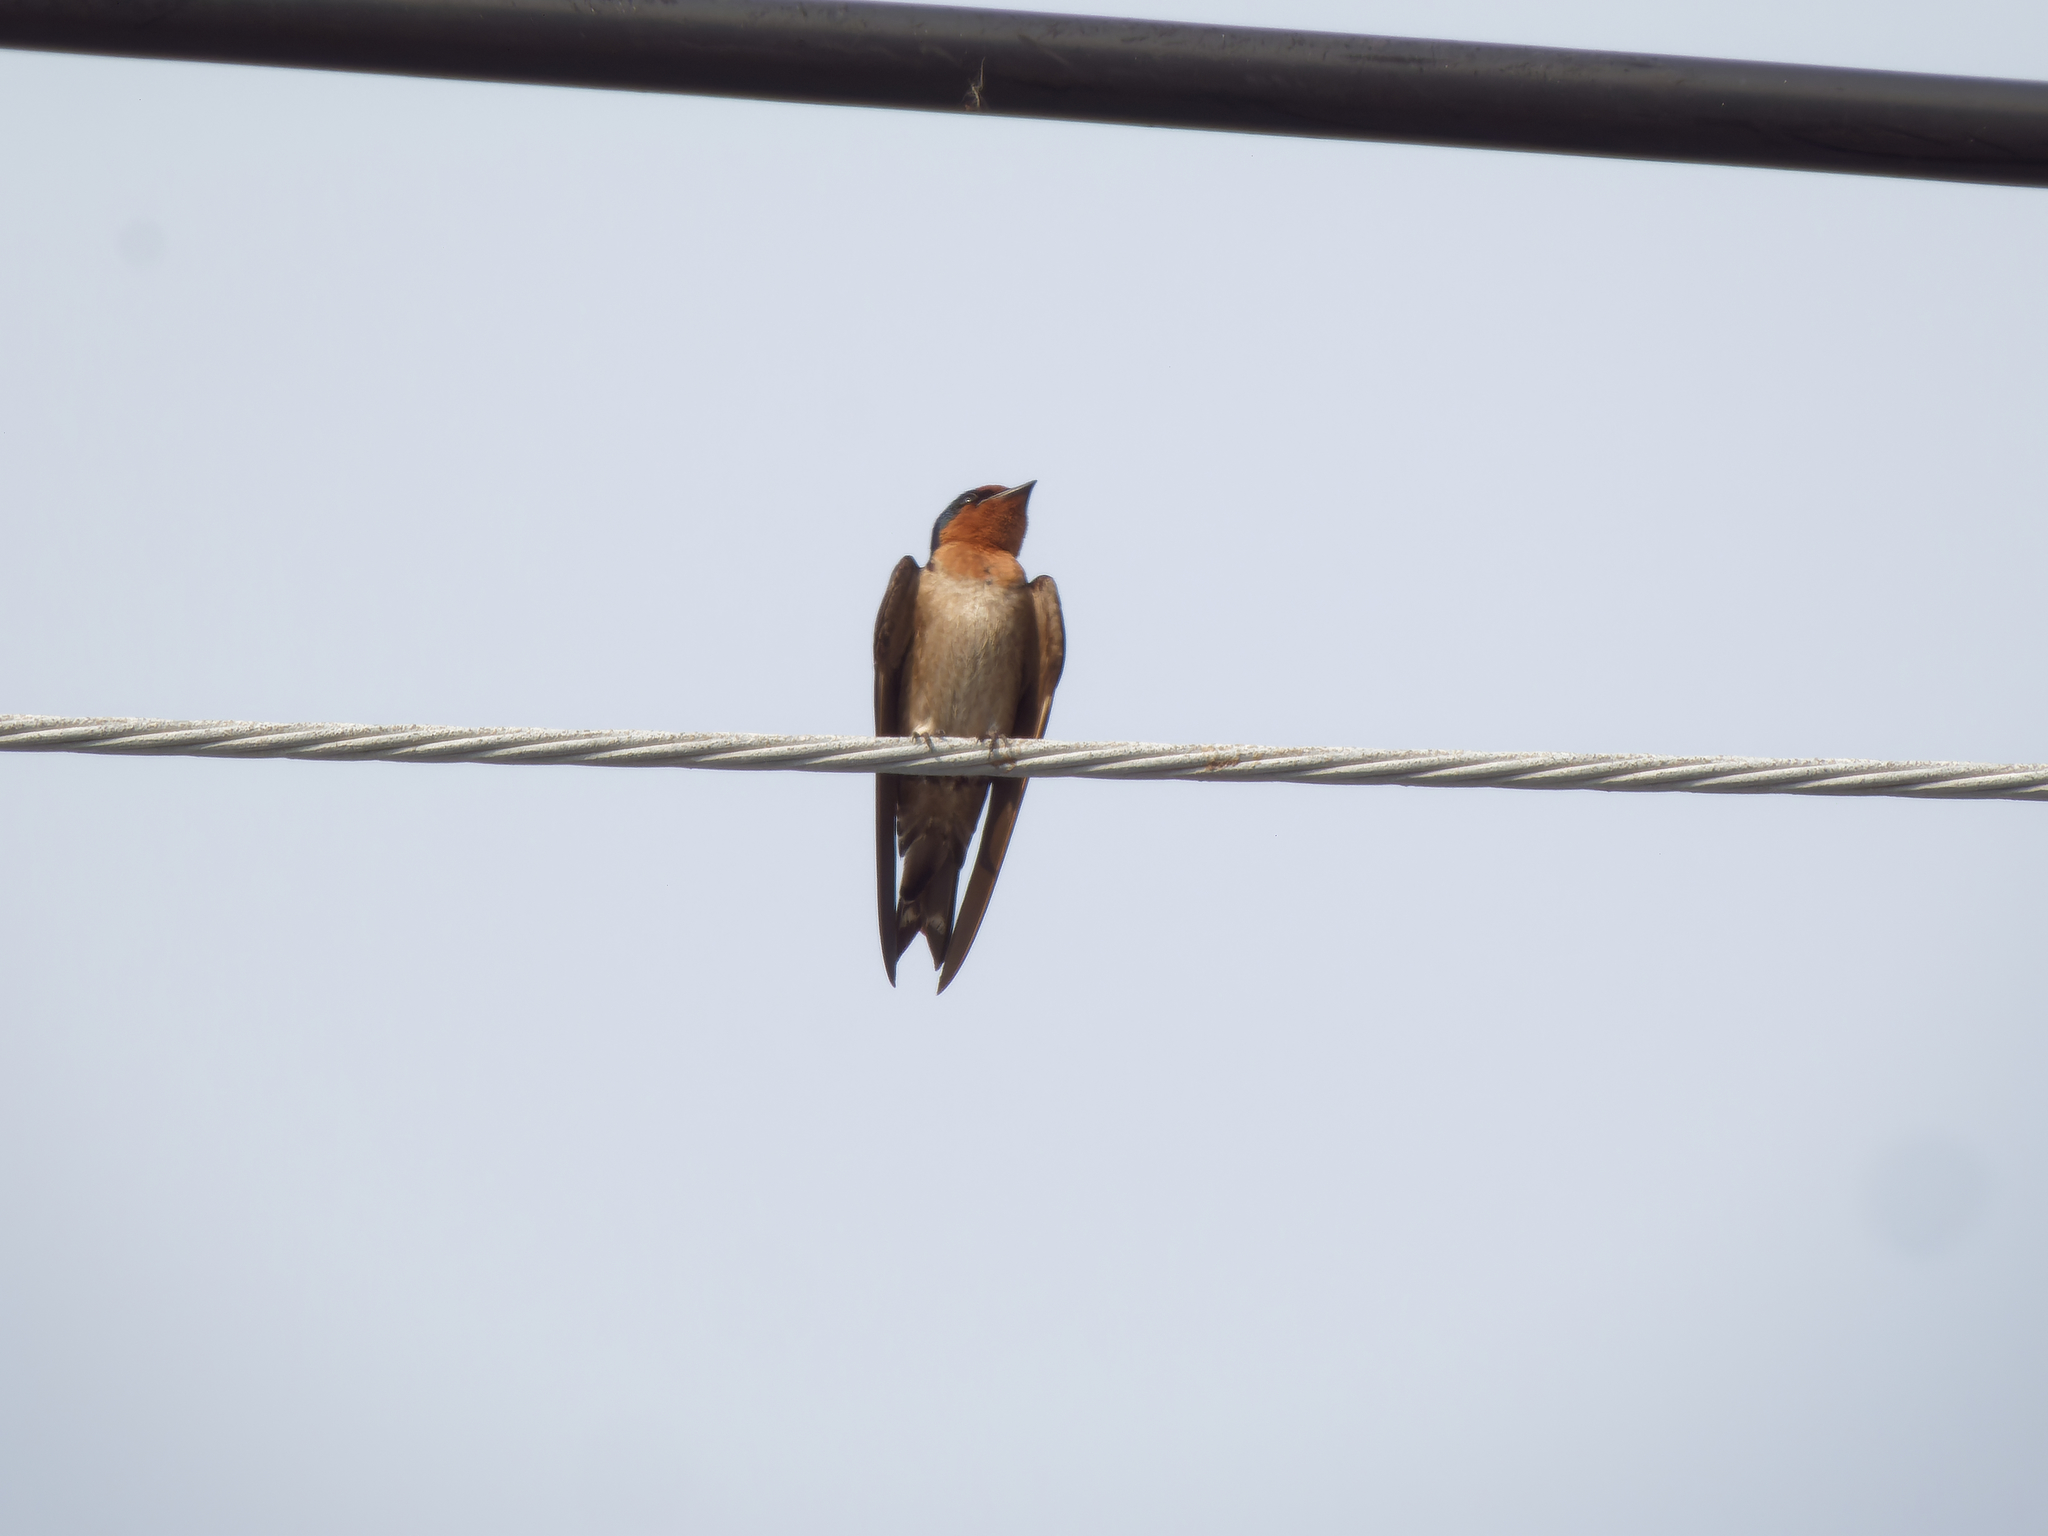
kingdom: Animalia
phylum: Chordata
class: Aves
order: Passeriformes
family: Hirundinidae
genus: Hirundo
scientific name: Hirundo tahitica
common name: Pacific swallow
